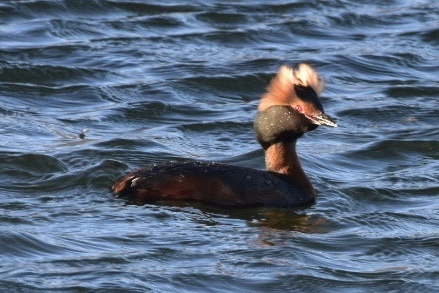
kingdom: Animalia
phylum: Chordata
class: Aves
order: Podicipediformes
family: Podicipedidae
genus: Podiceps
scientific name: Podiceps auritus
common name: Horned grebe
